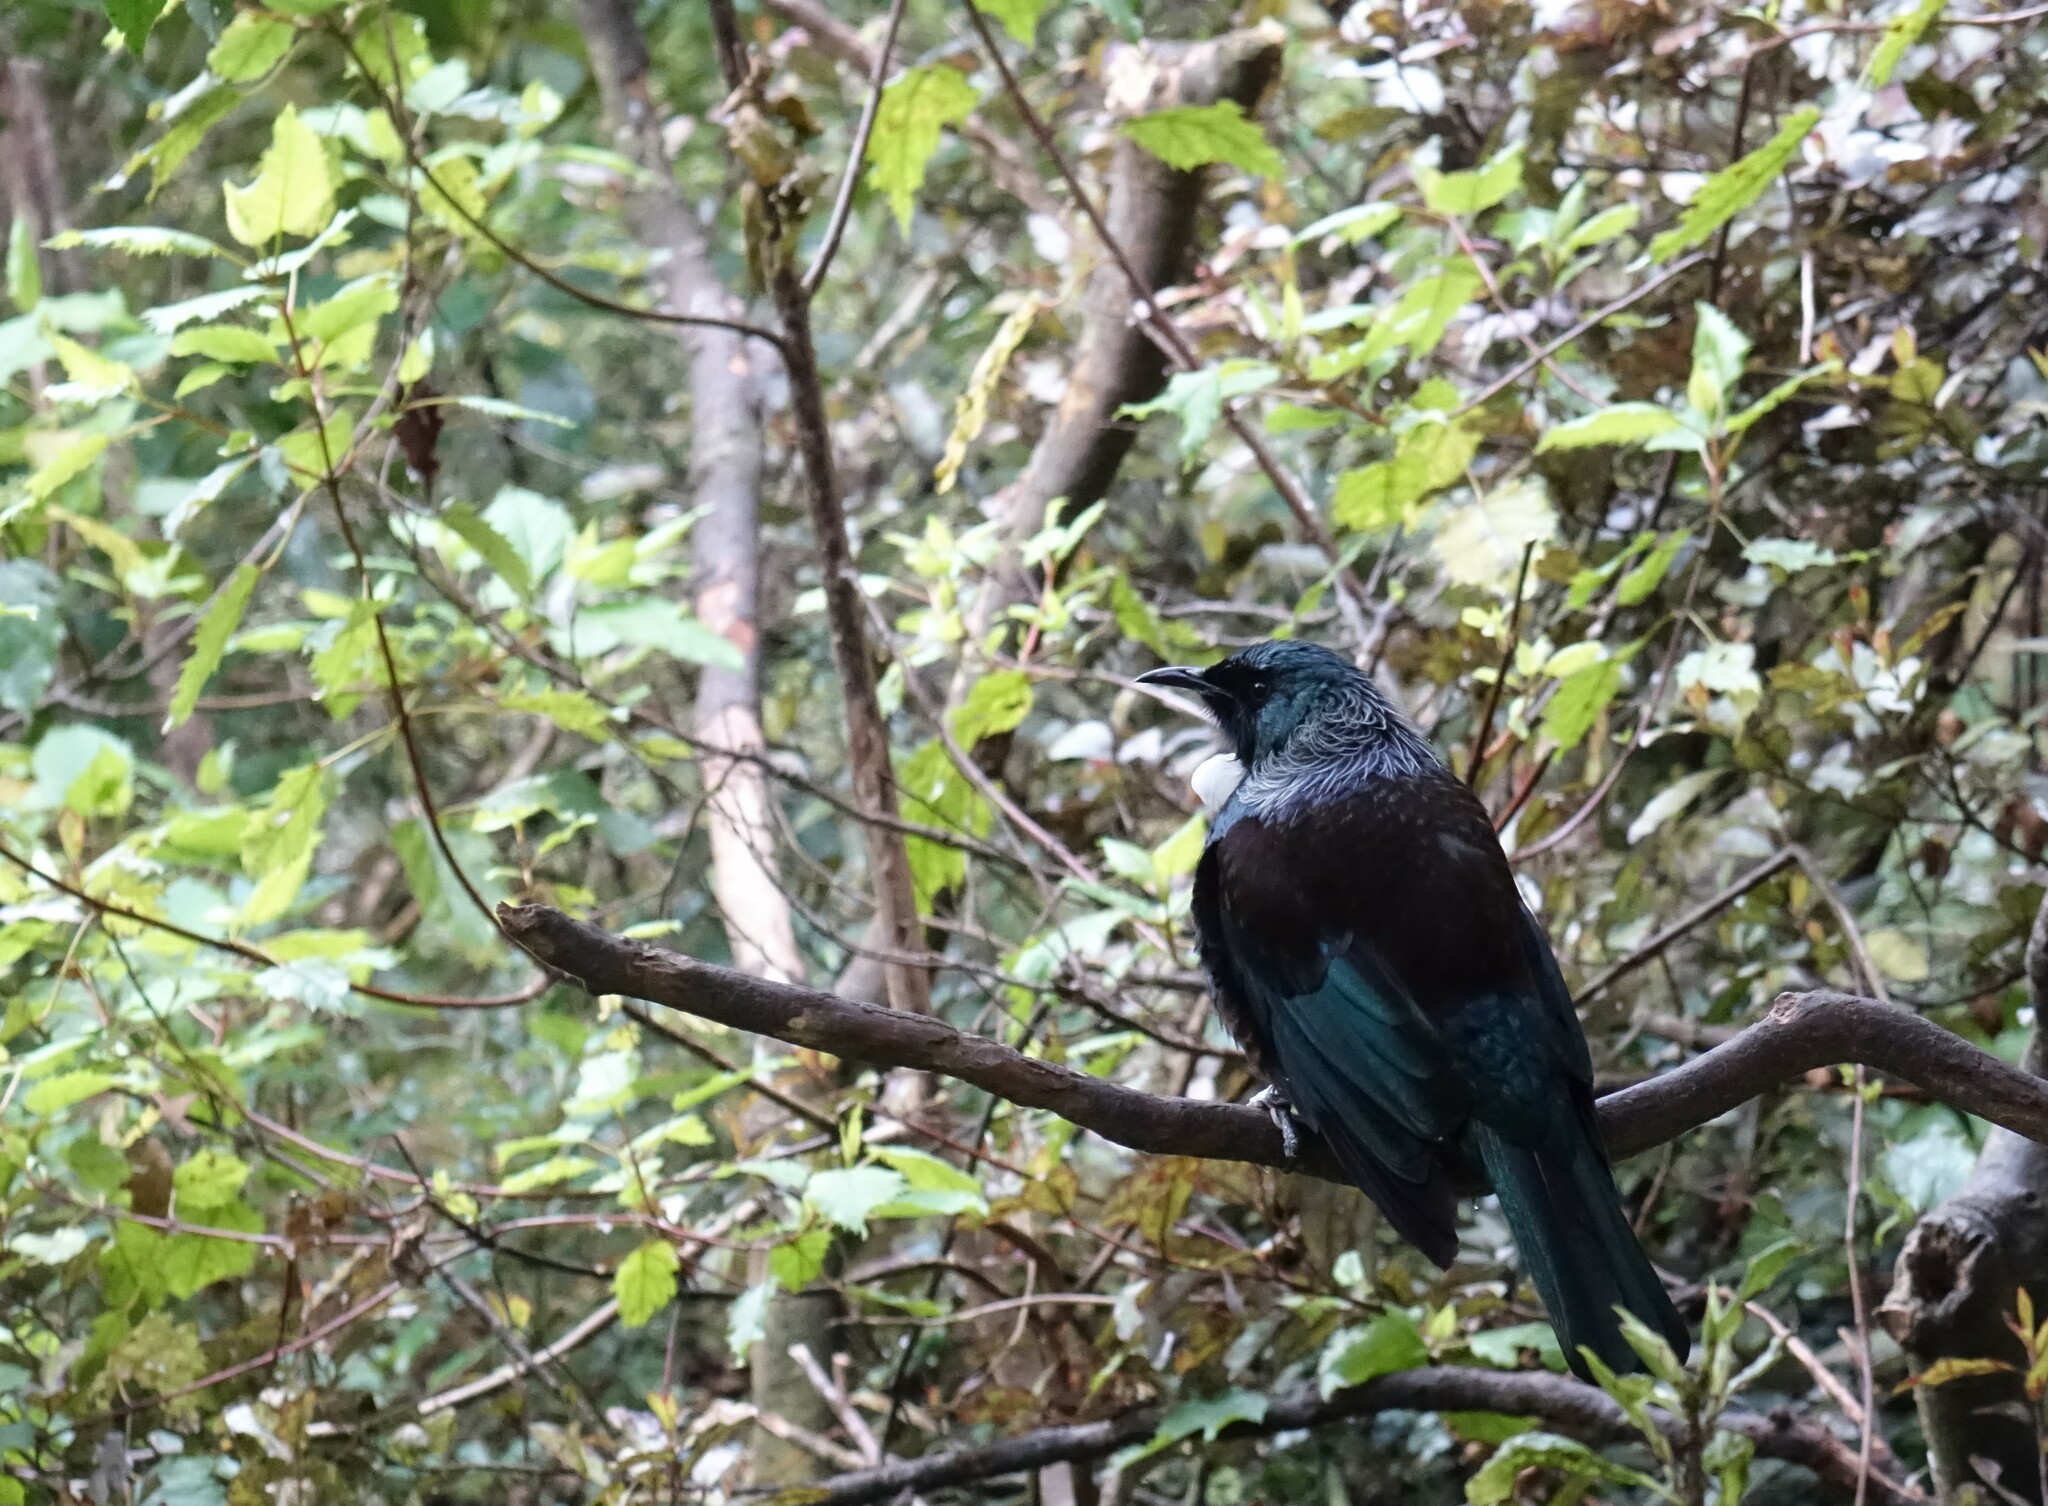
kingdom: Animalia
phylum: Chordata
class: Aves
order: Passeriformes
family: Meliphagidae
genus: Prosthemadera
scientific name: Prosthemadera novaeseelandiae
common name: Tui
